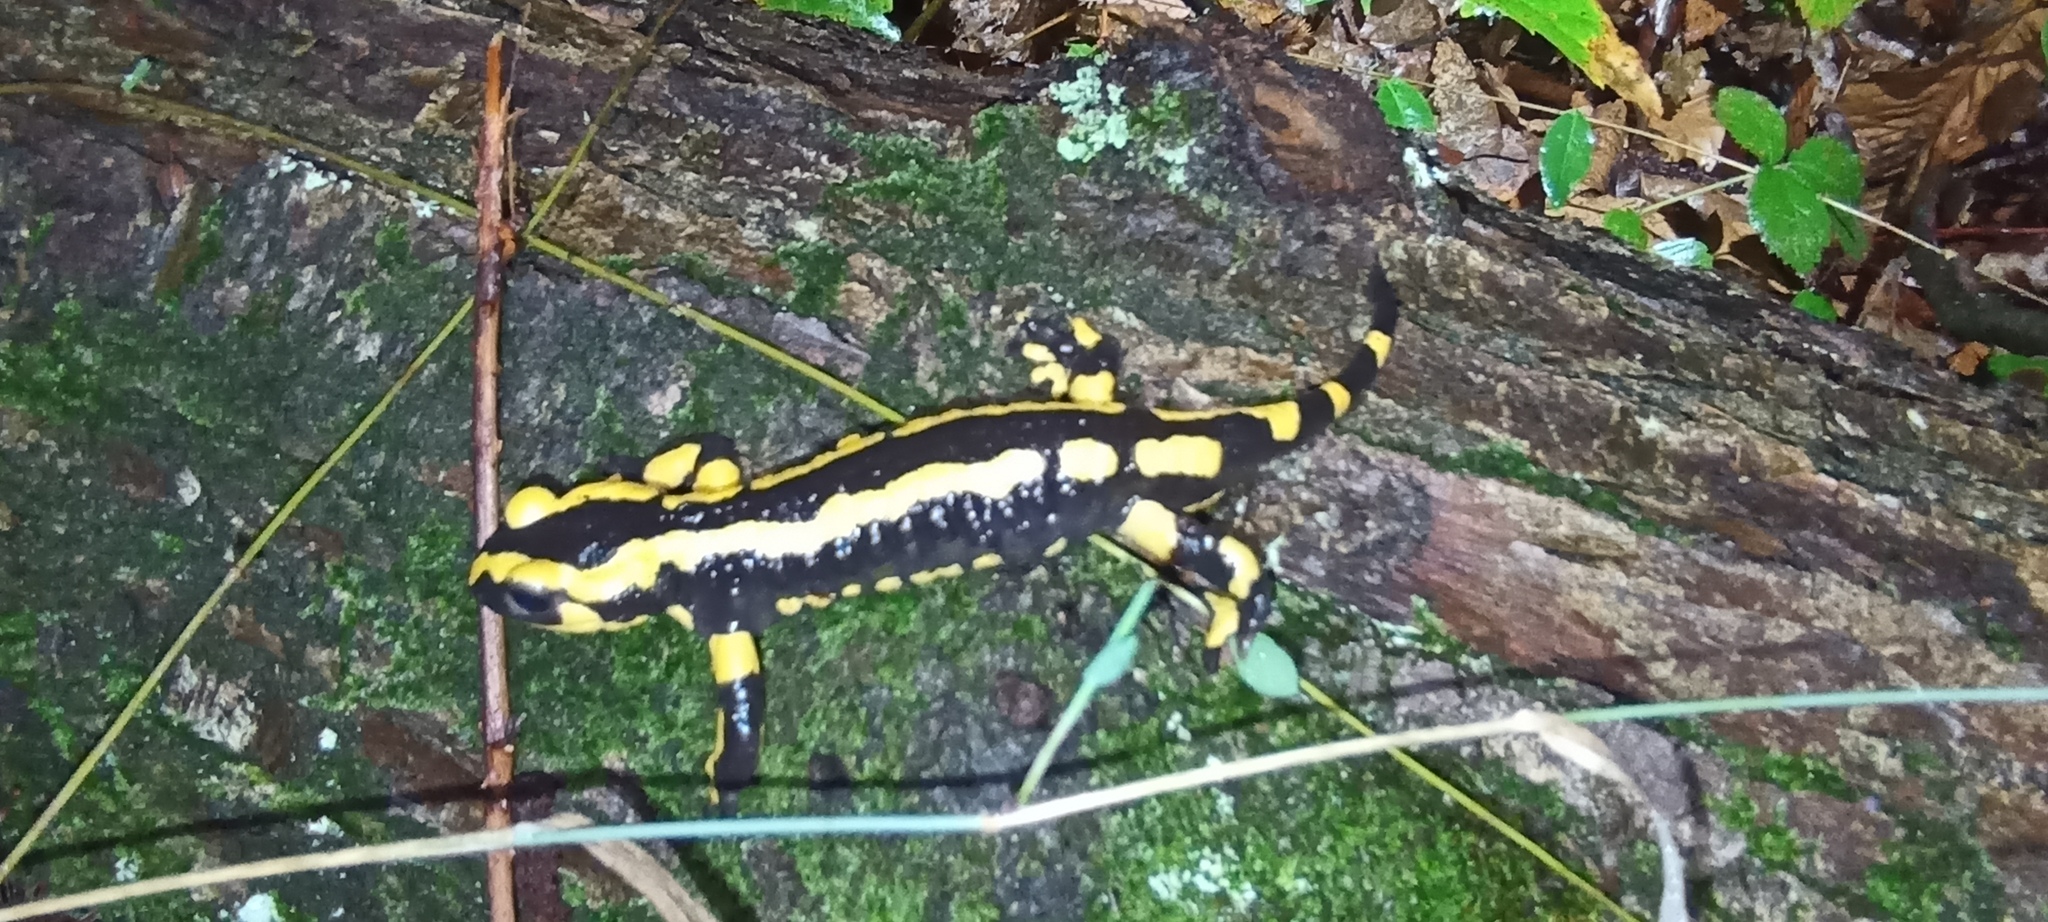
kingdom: Animalia
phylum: Chordata
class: Amphibia
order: Caudata
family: Salamandridae
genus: Salamandra
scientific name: Salamandra salamandra
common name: Fire salamander
